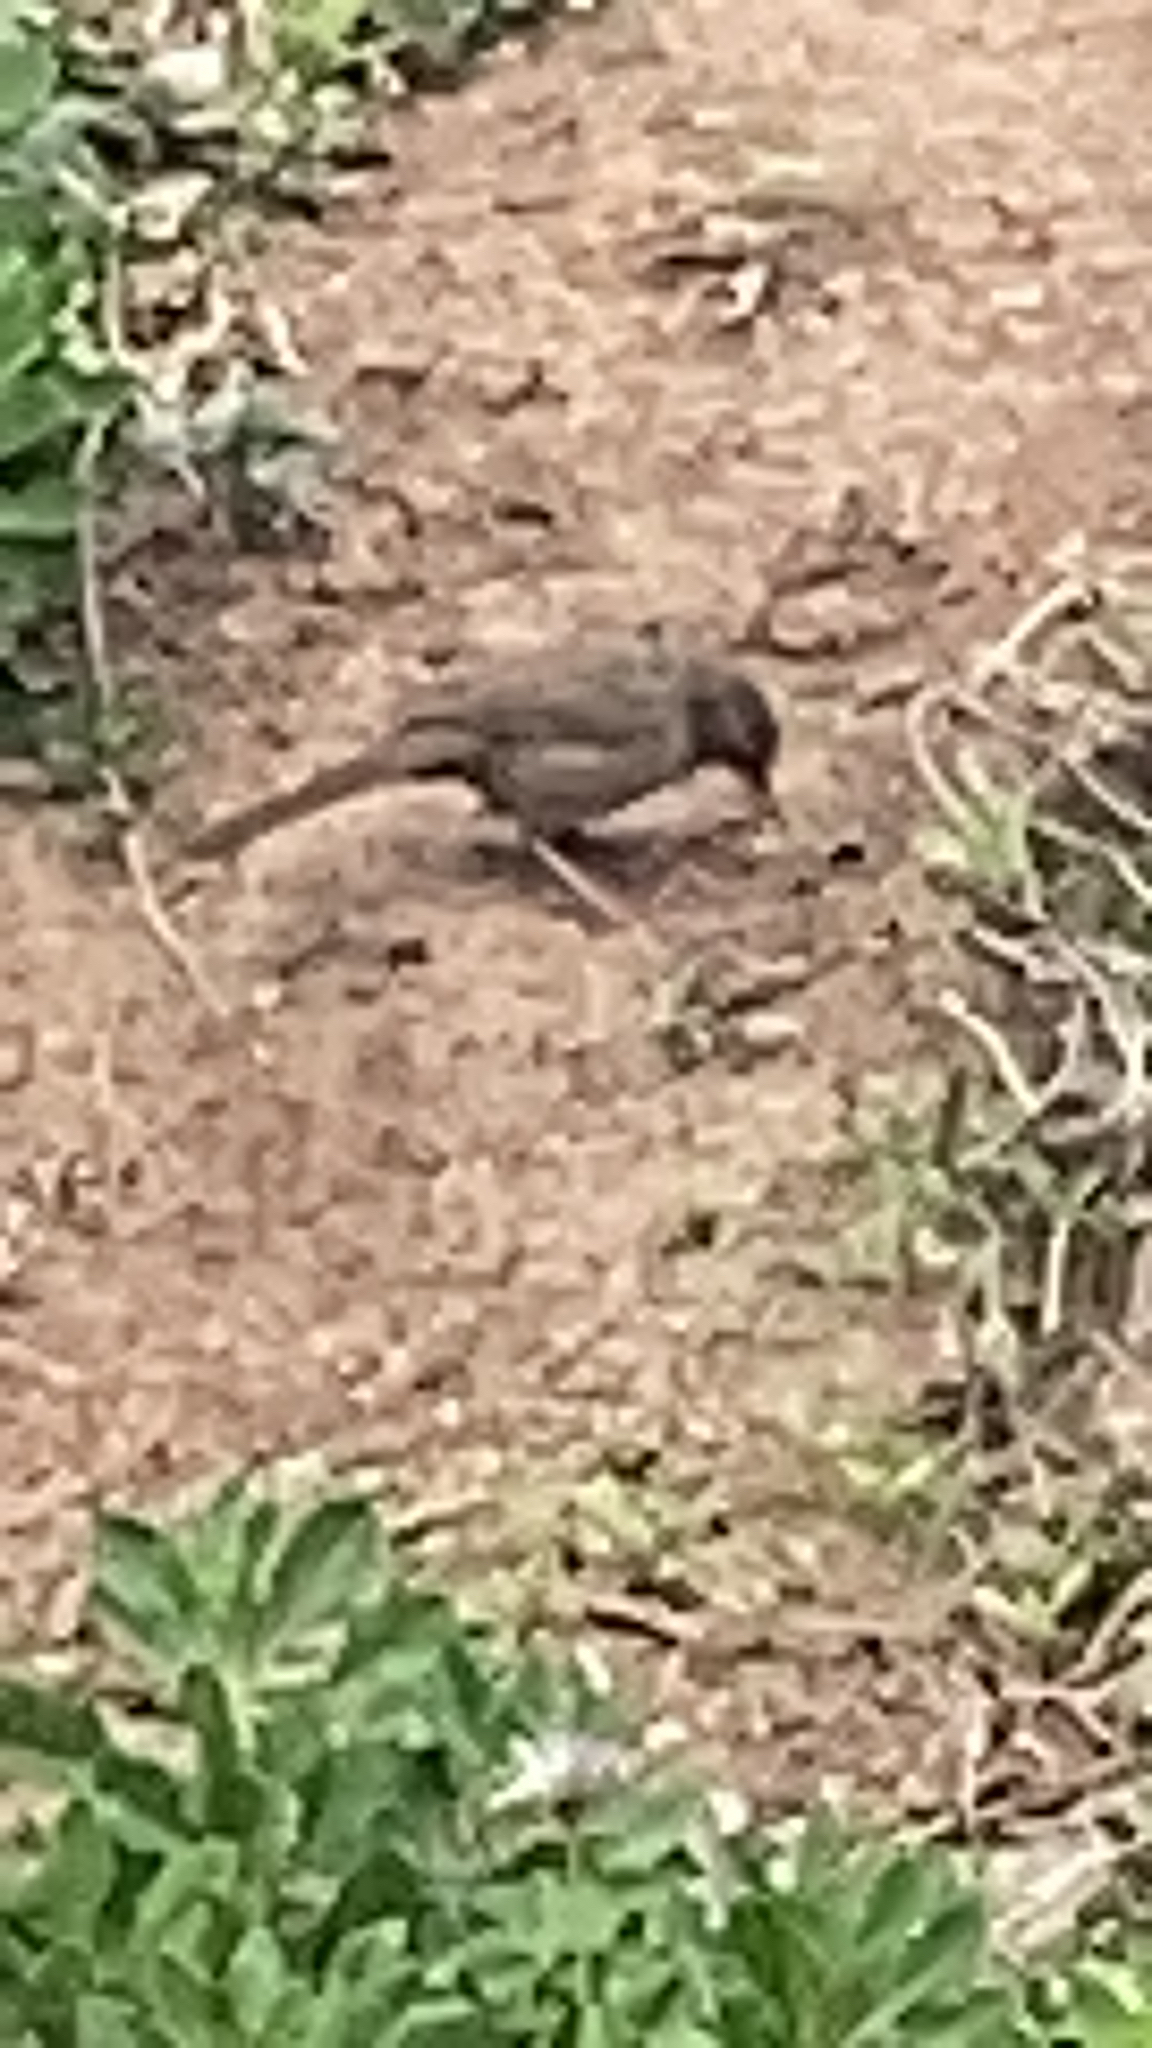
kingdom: Animalia
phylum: Chordata
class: Aves
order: Passeriformes
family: Passerellidae
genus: Melozone
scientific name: Melozone crissalis
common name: California towhee
